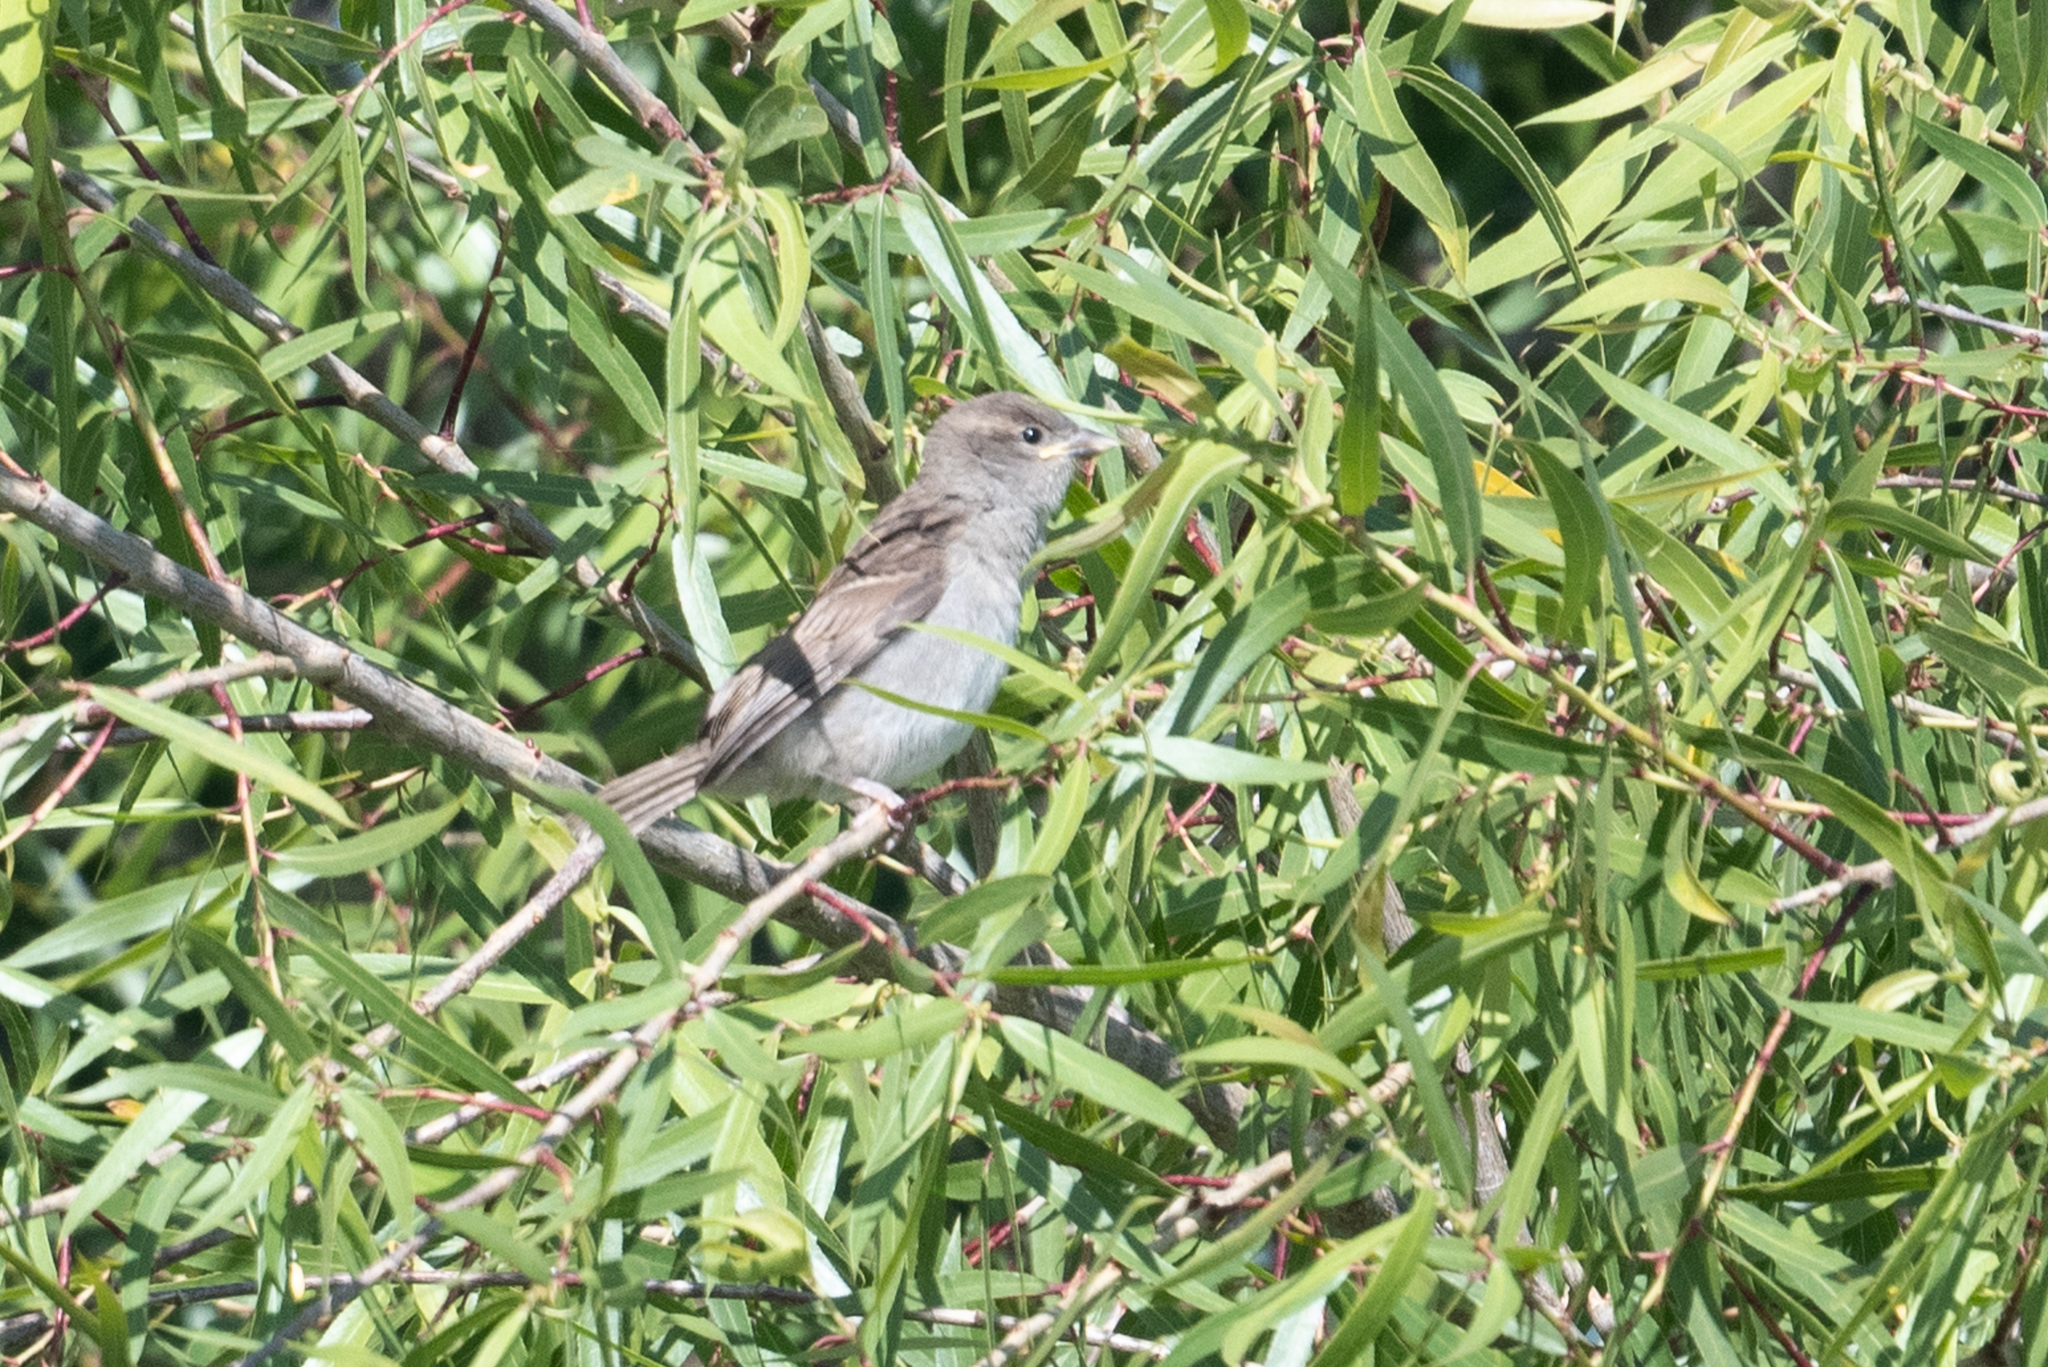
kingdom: Animalia
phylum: Chordata
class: Aves
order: Passeriformes
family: Passeridae
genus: Passer
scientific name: Passer domesticus
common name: House sparrow
